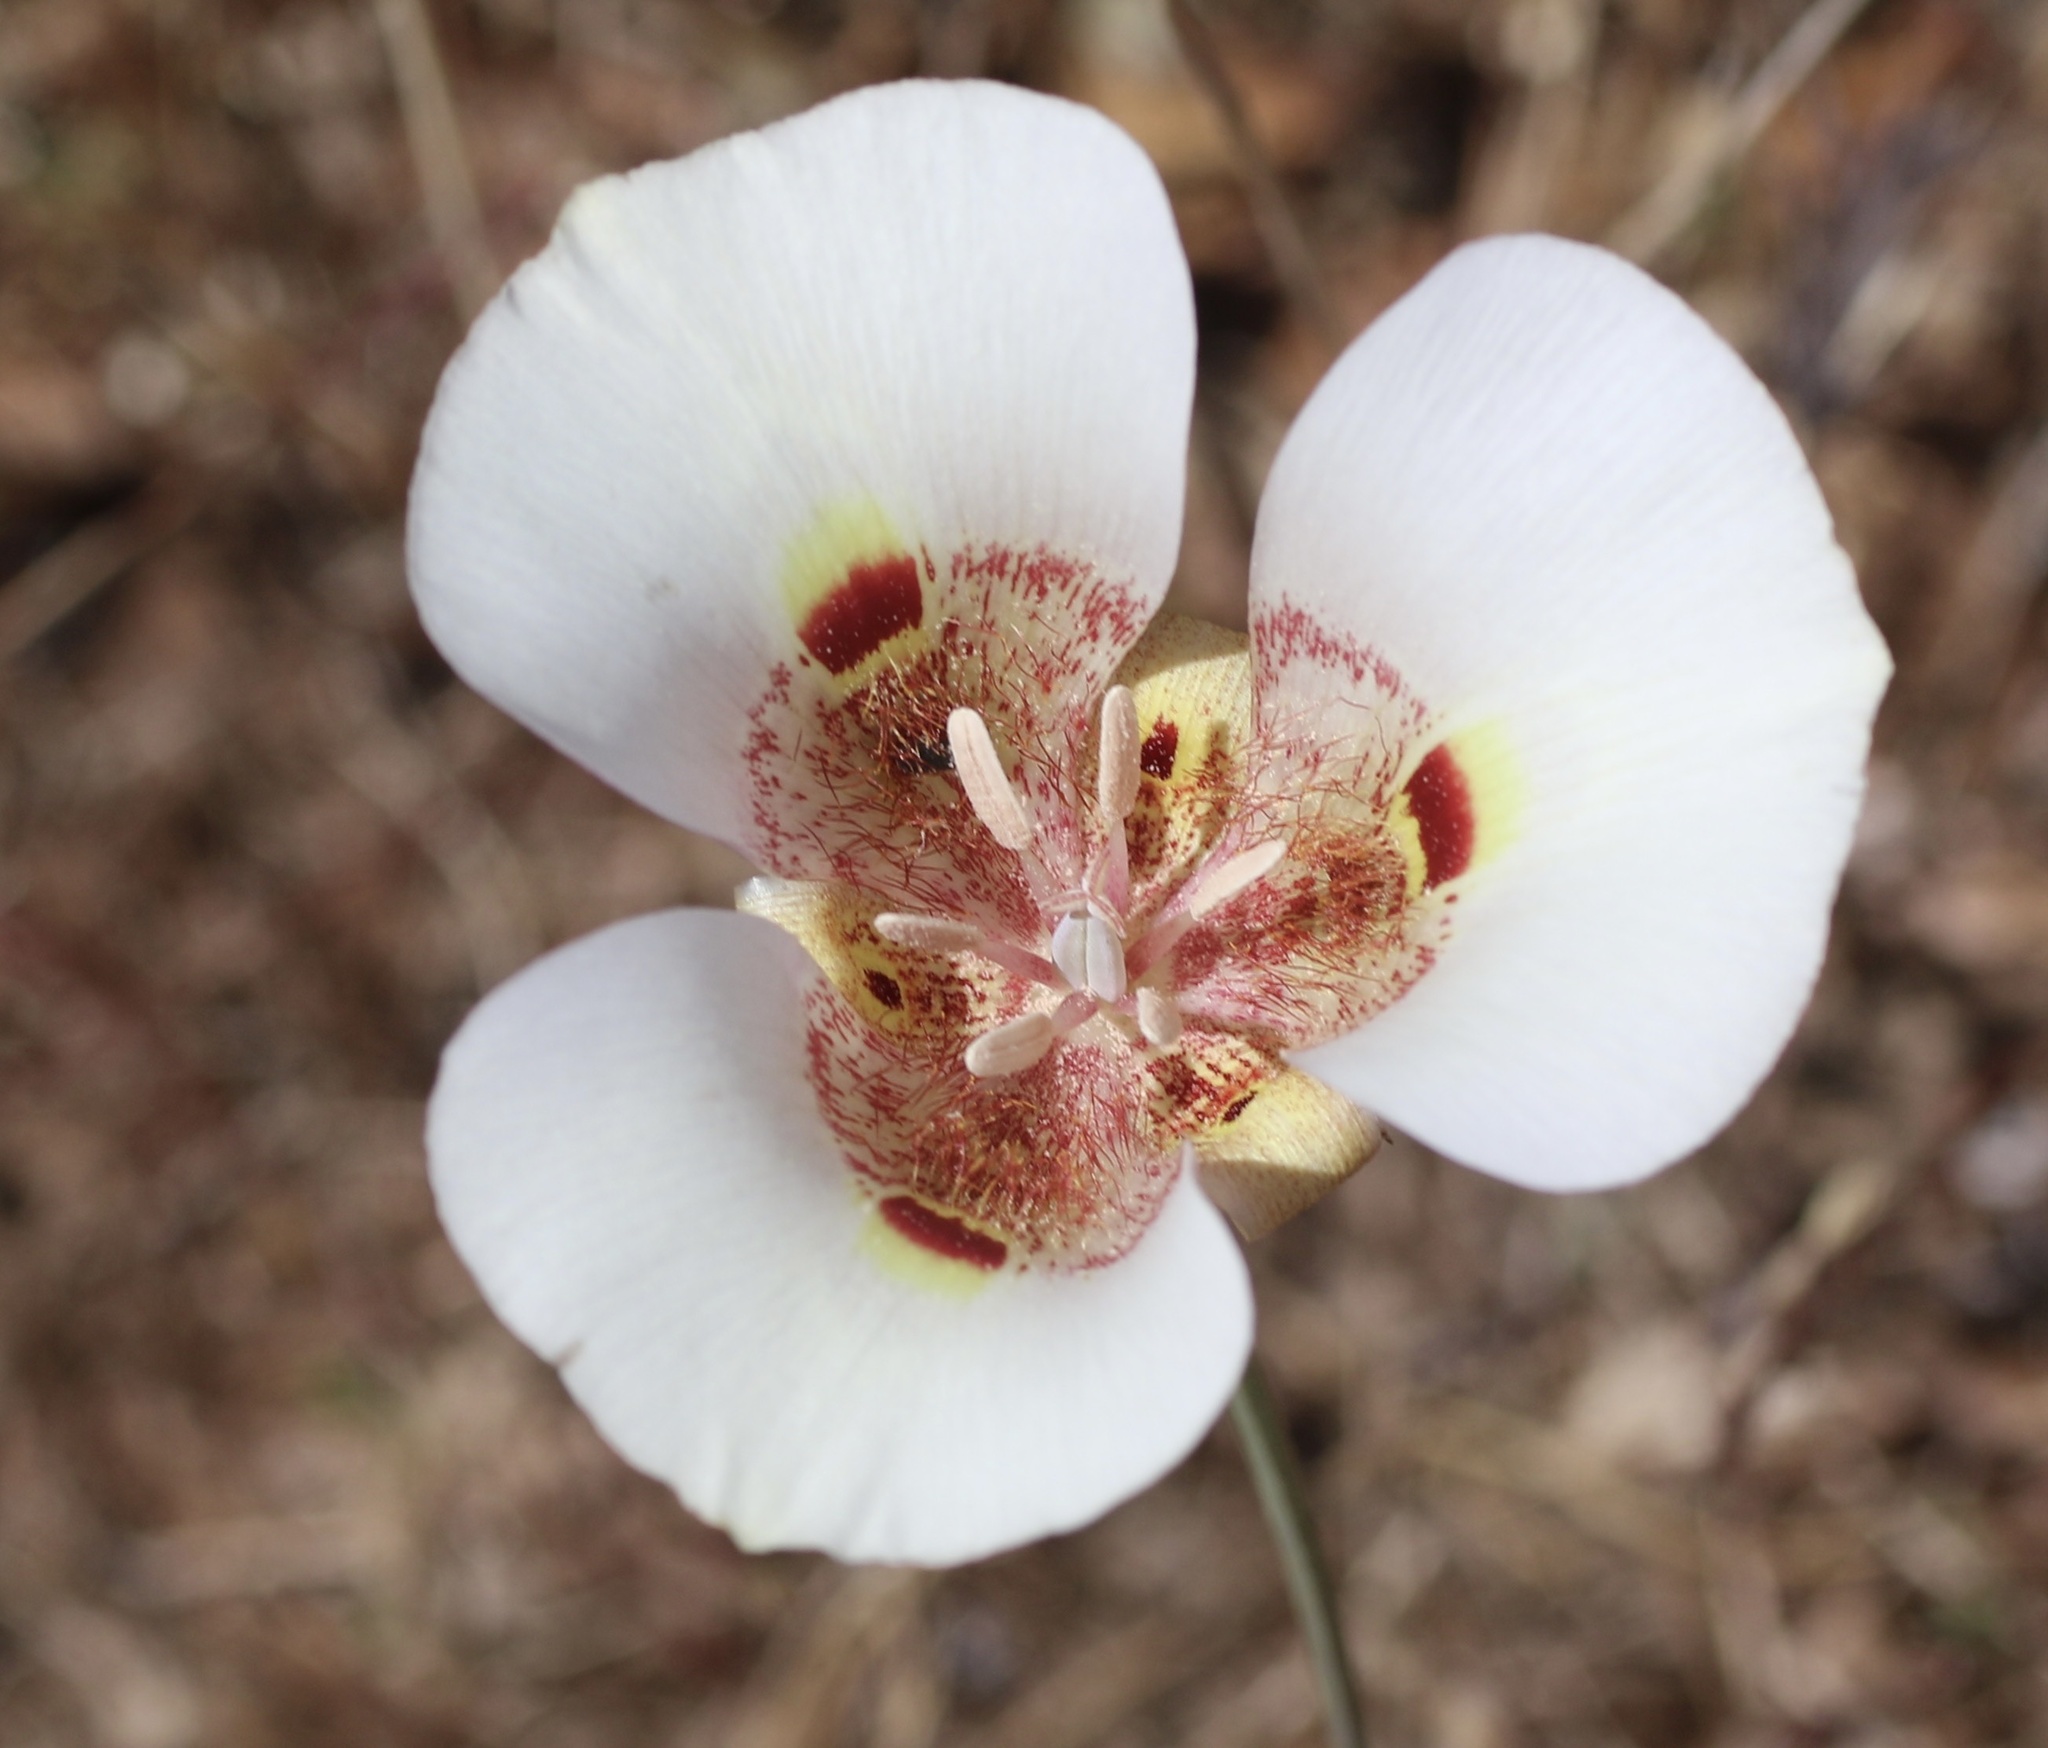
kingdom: Plantae
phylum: Tracheophyta
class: Liliopsida
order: Liliales
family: Liliaceae
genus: Calochortus
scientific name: Calochortus argillosus
